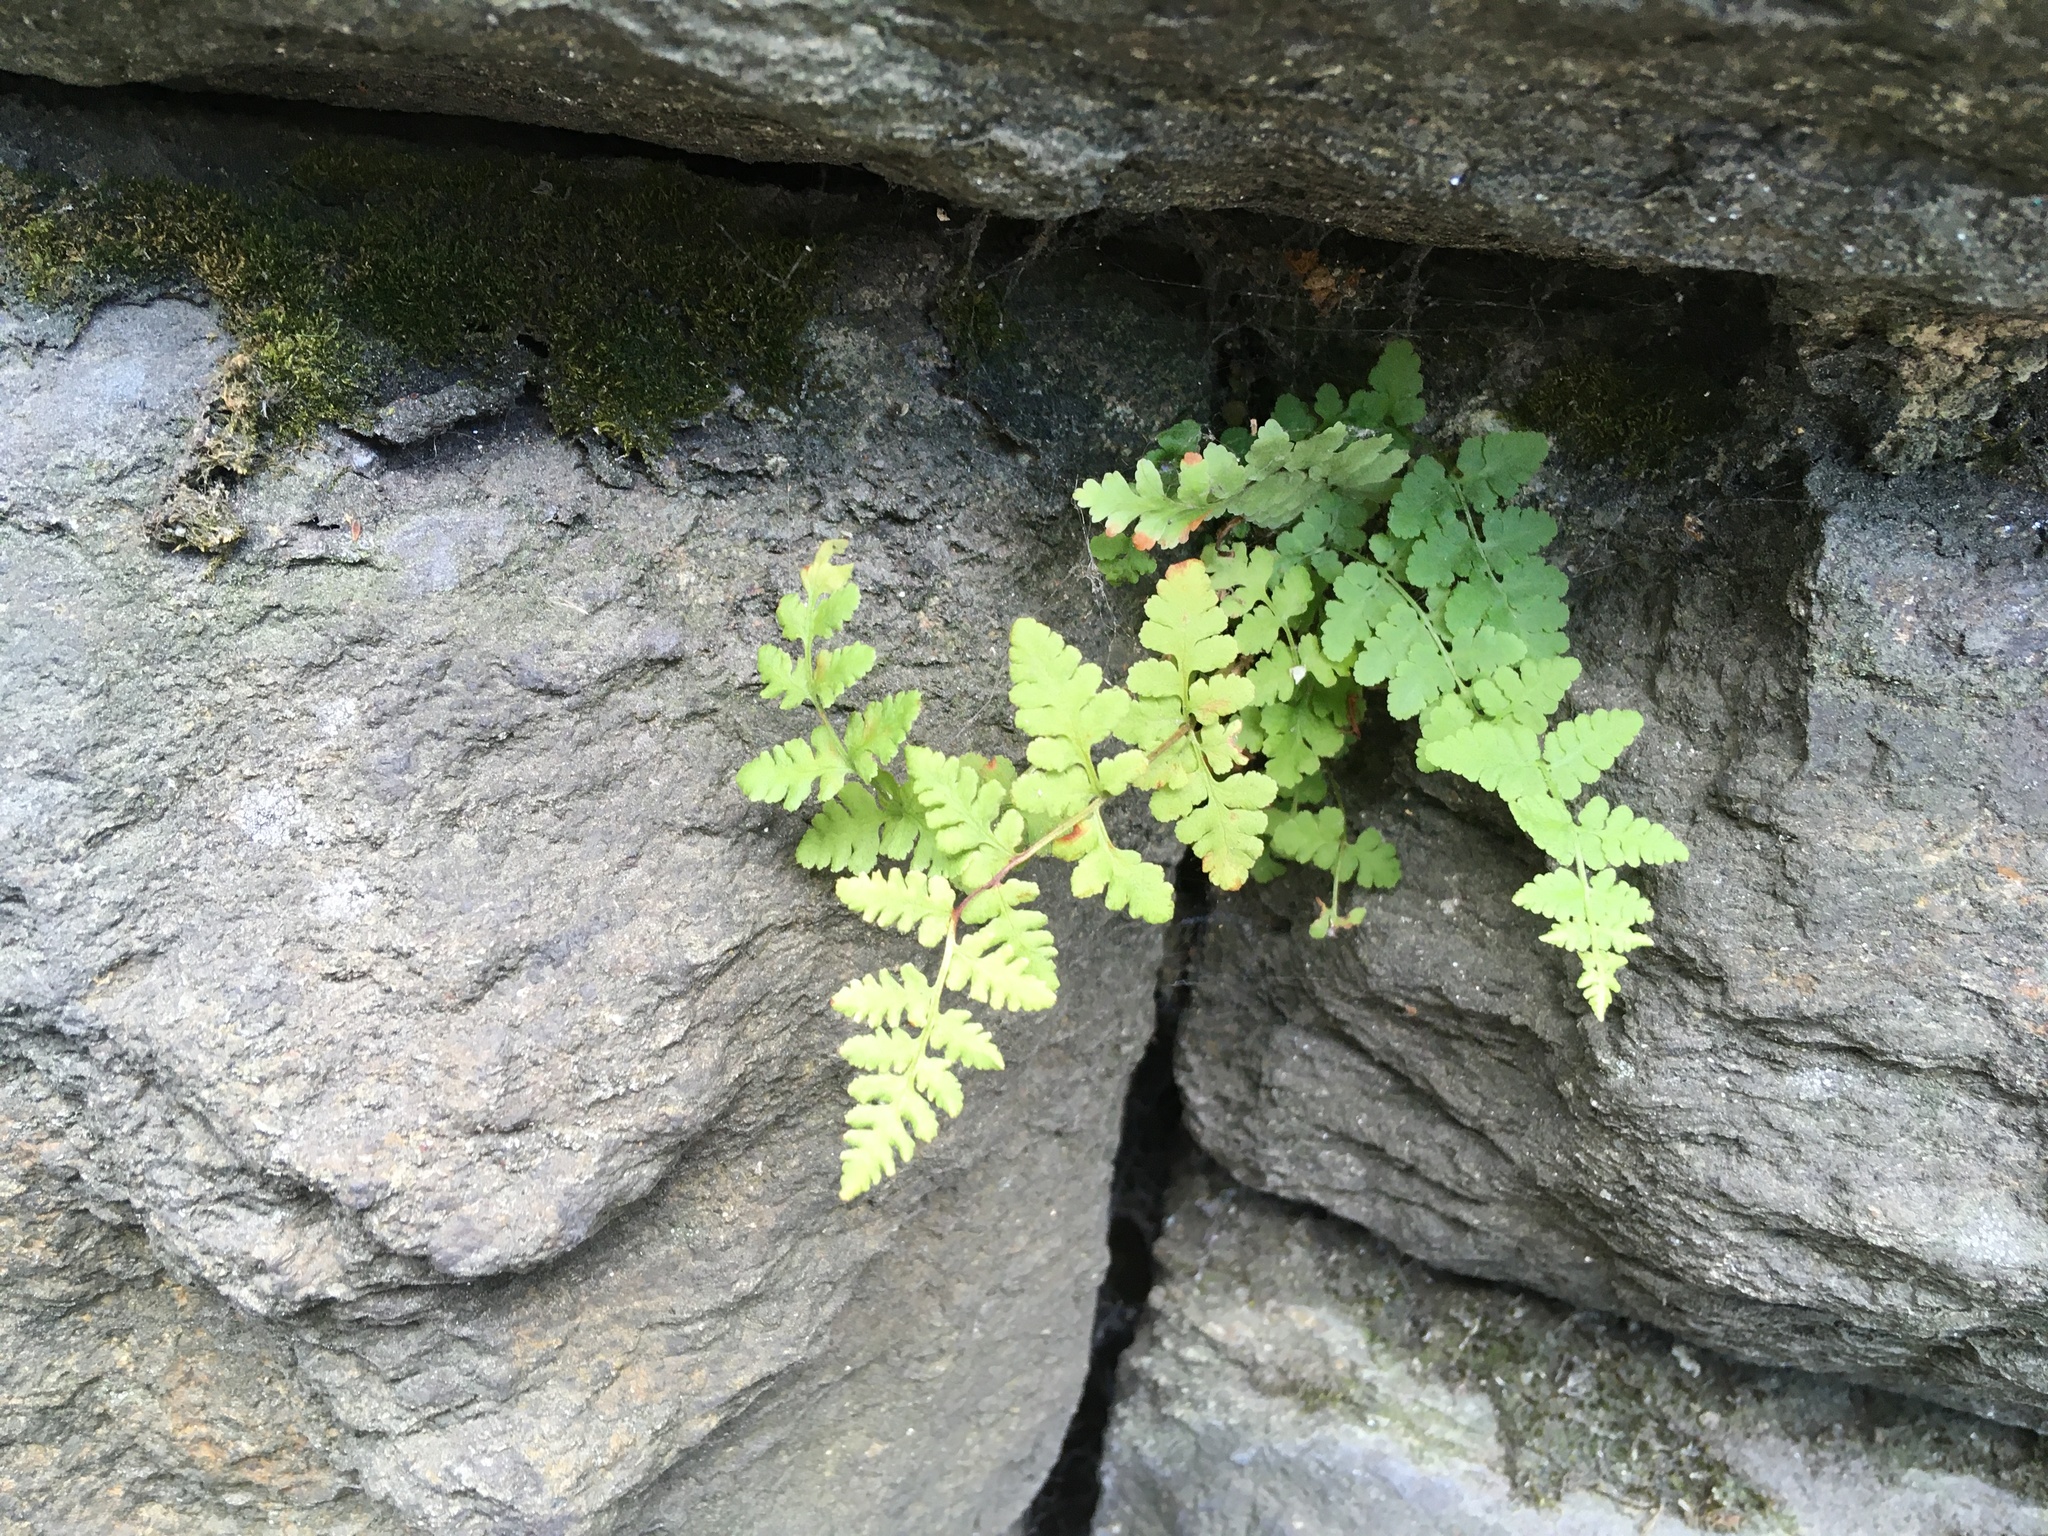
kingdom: Plantae
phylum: Tracheophyta
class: Polypodiopsida
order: Polypodiales
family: Woodsiaceae
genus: Physematium
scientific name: Physematium obtusum
